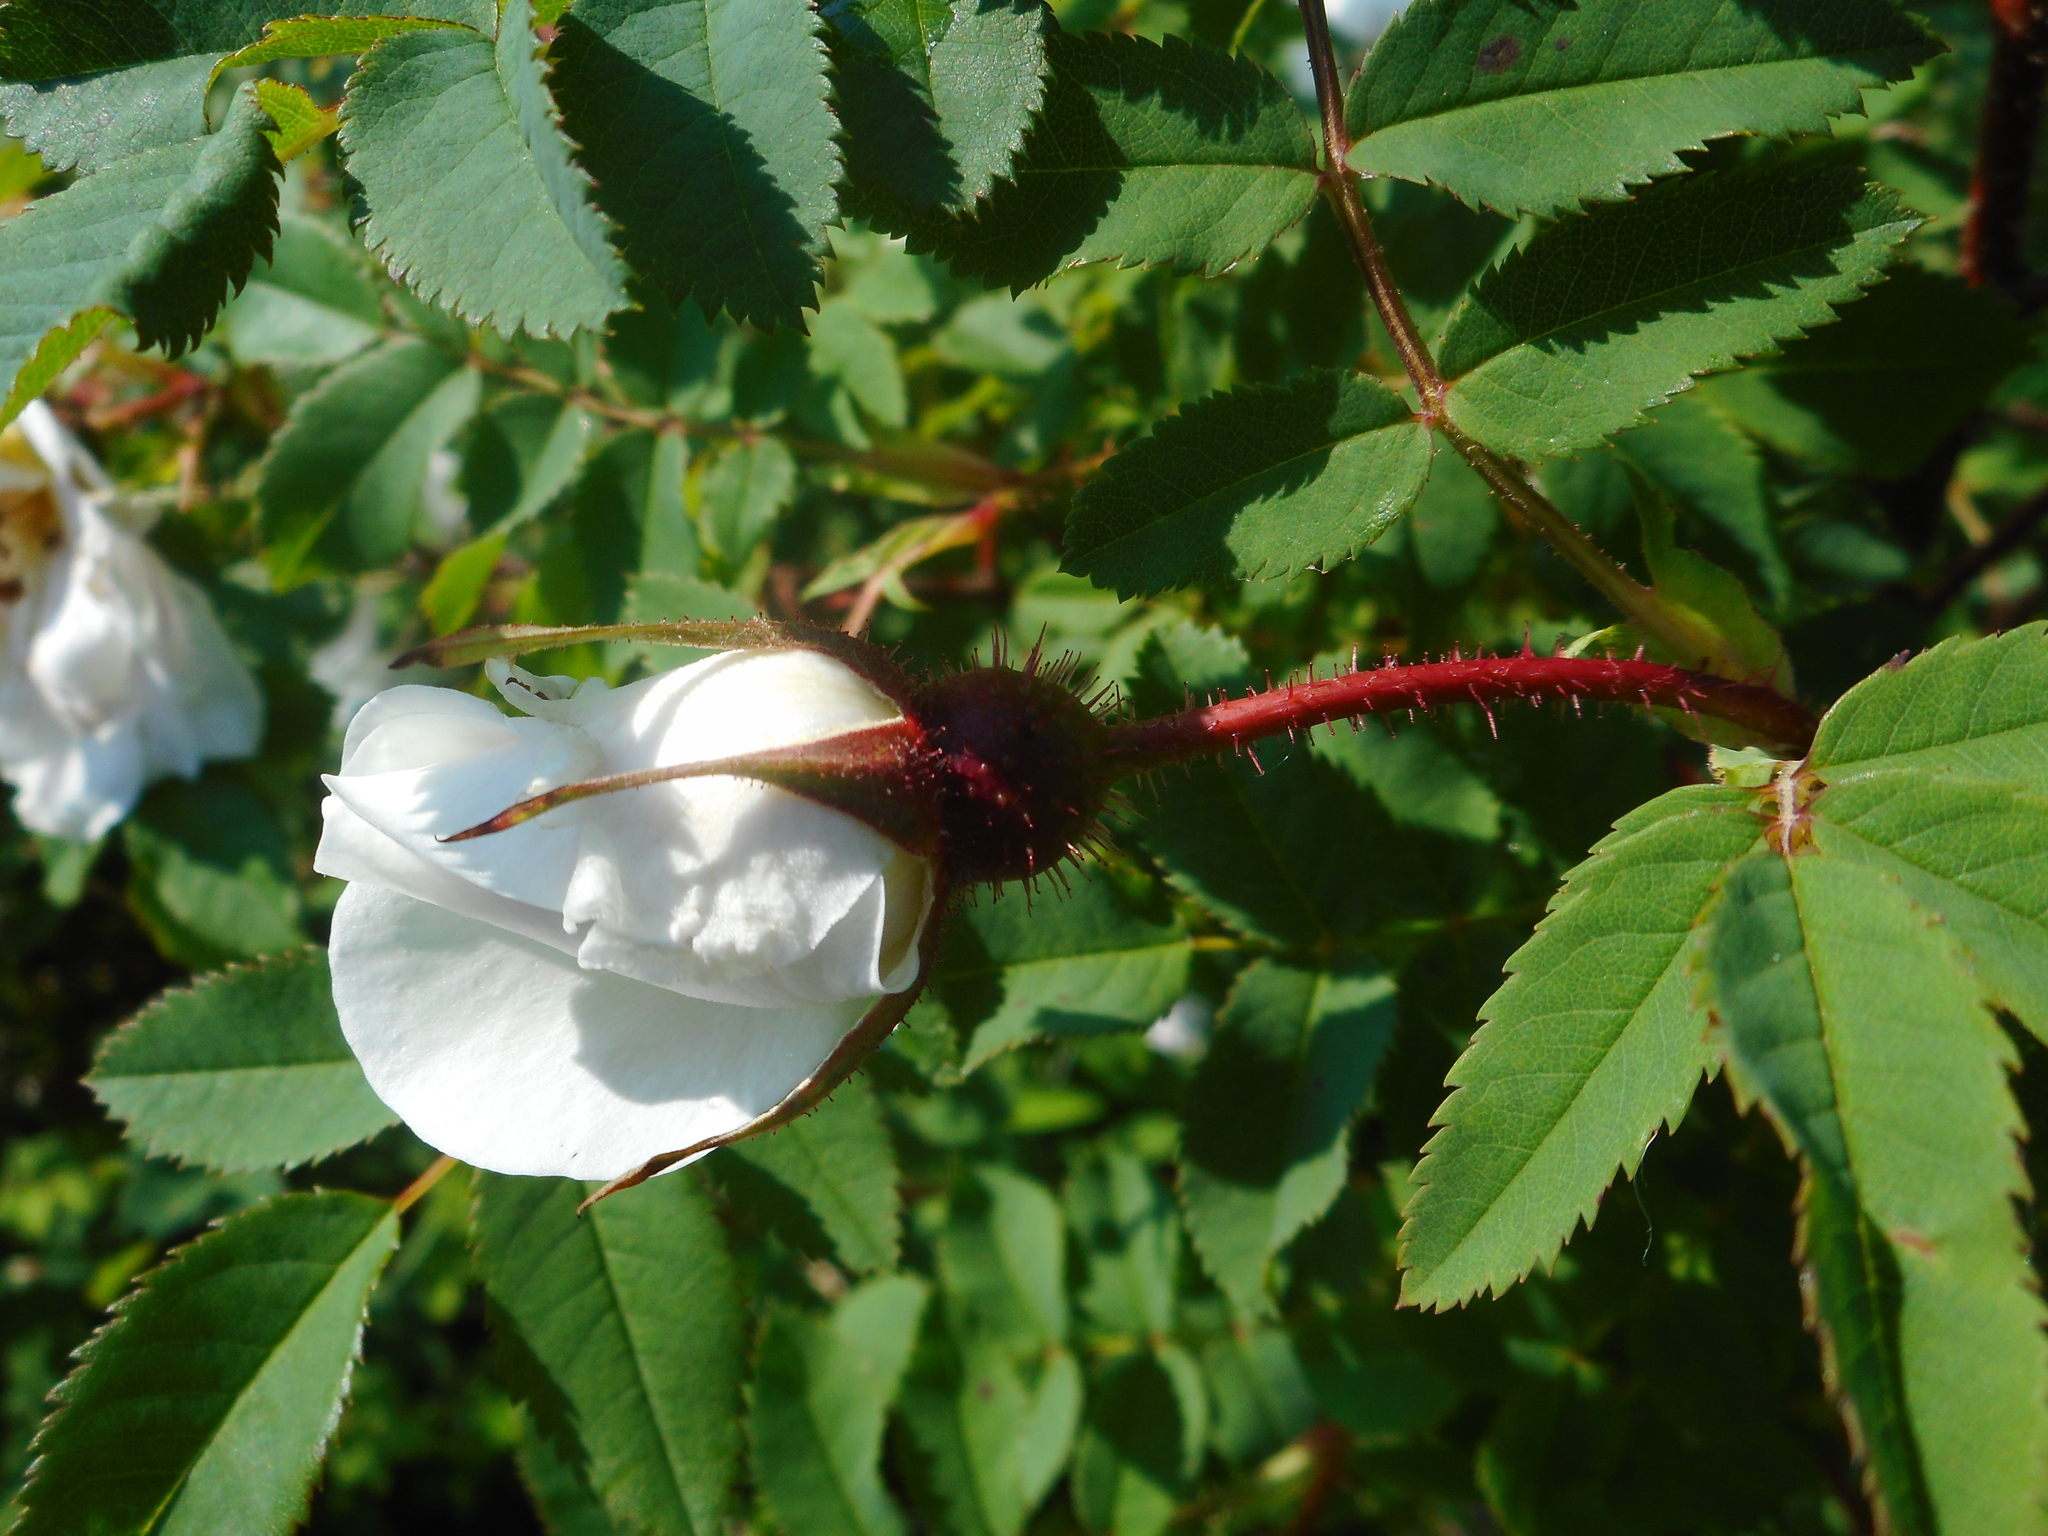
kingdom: Plantae
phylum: Tracheophyta
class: Magnoliopsida
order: Rosales
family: Rosaceae
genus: Rosa
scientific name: Rosa spinosissima
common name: Burnet rose
